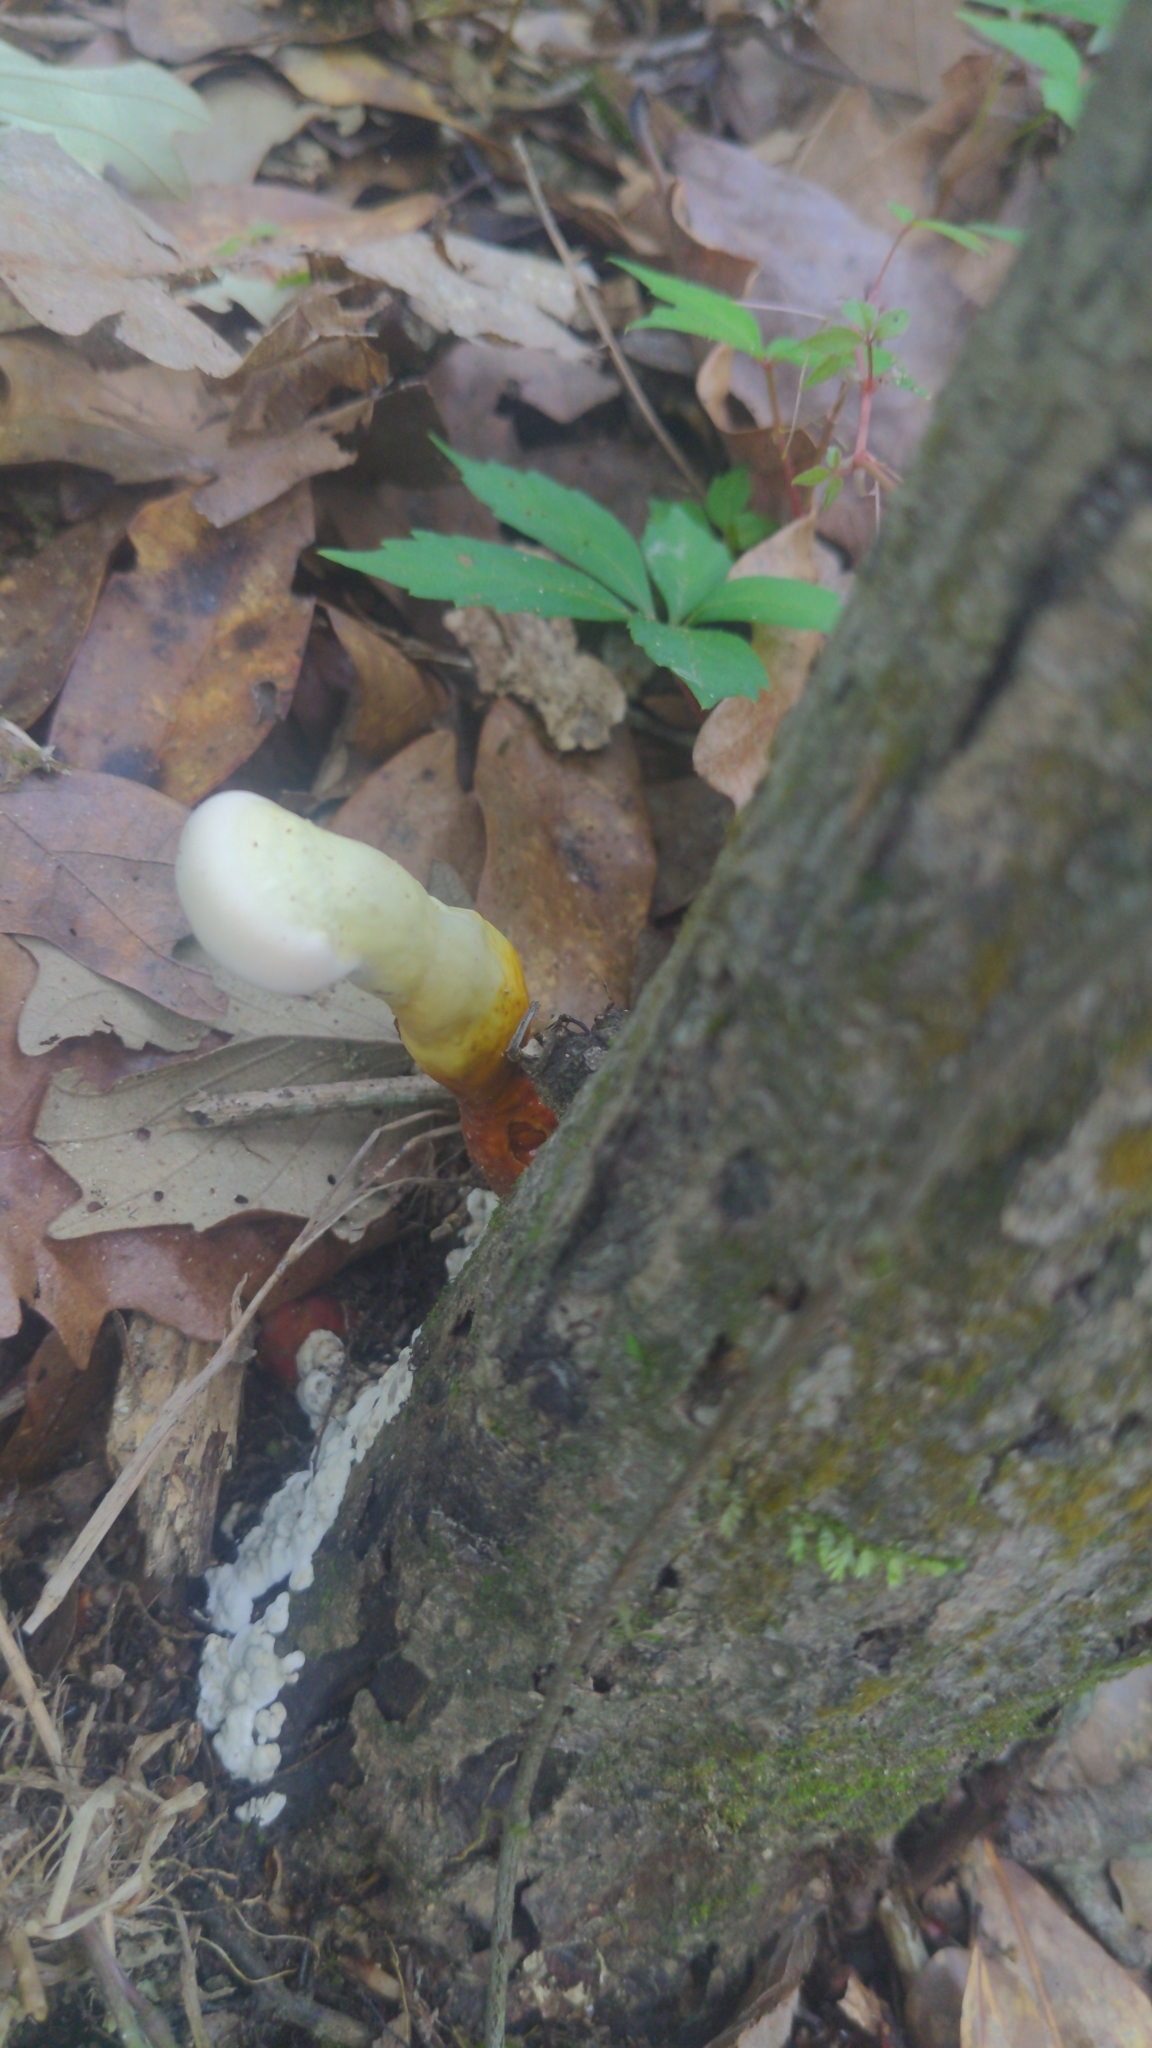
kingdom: Fungi
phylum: Basidiomycota
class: Agaricomycetes
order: Polyporales
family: Polyporaceae
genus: Ganoderma
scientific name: Ganoderma curtisii
